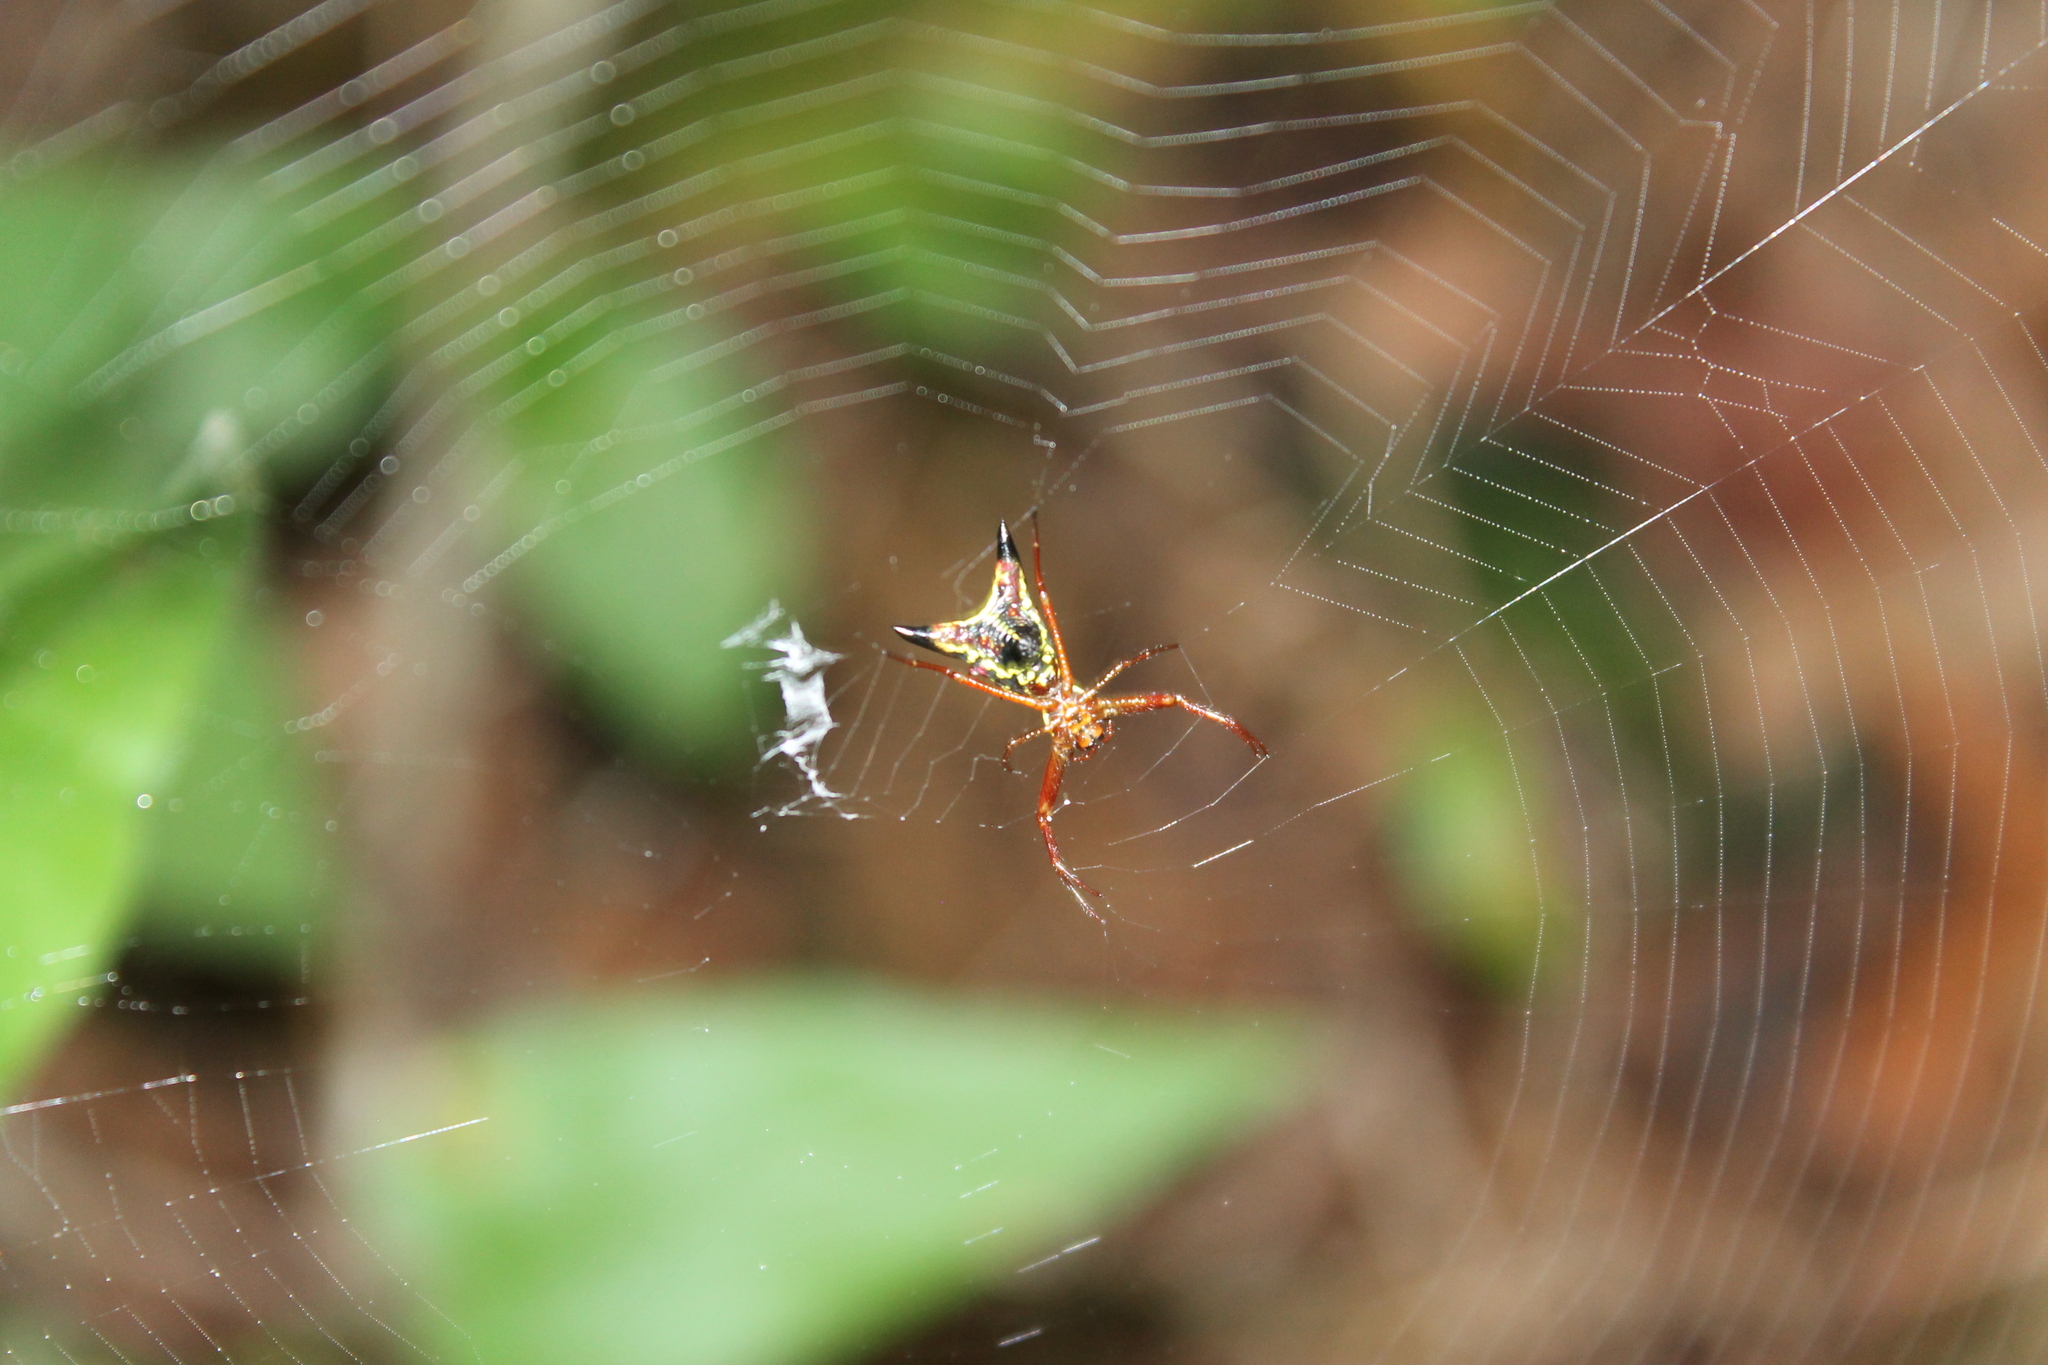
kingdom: Animalia
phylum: Arthropoda
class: Arachnida
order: Araneae
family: Araneidae
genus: Micrathena
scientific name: Micrathena sagittata
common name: Orb weavers
